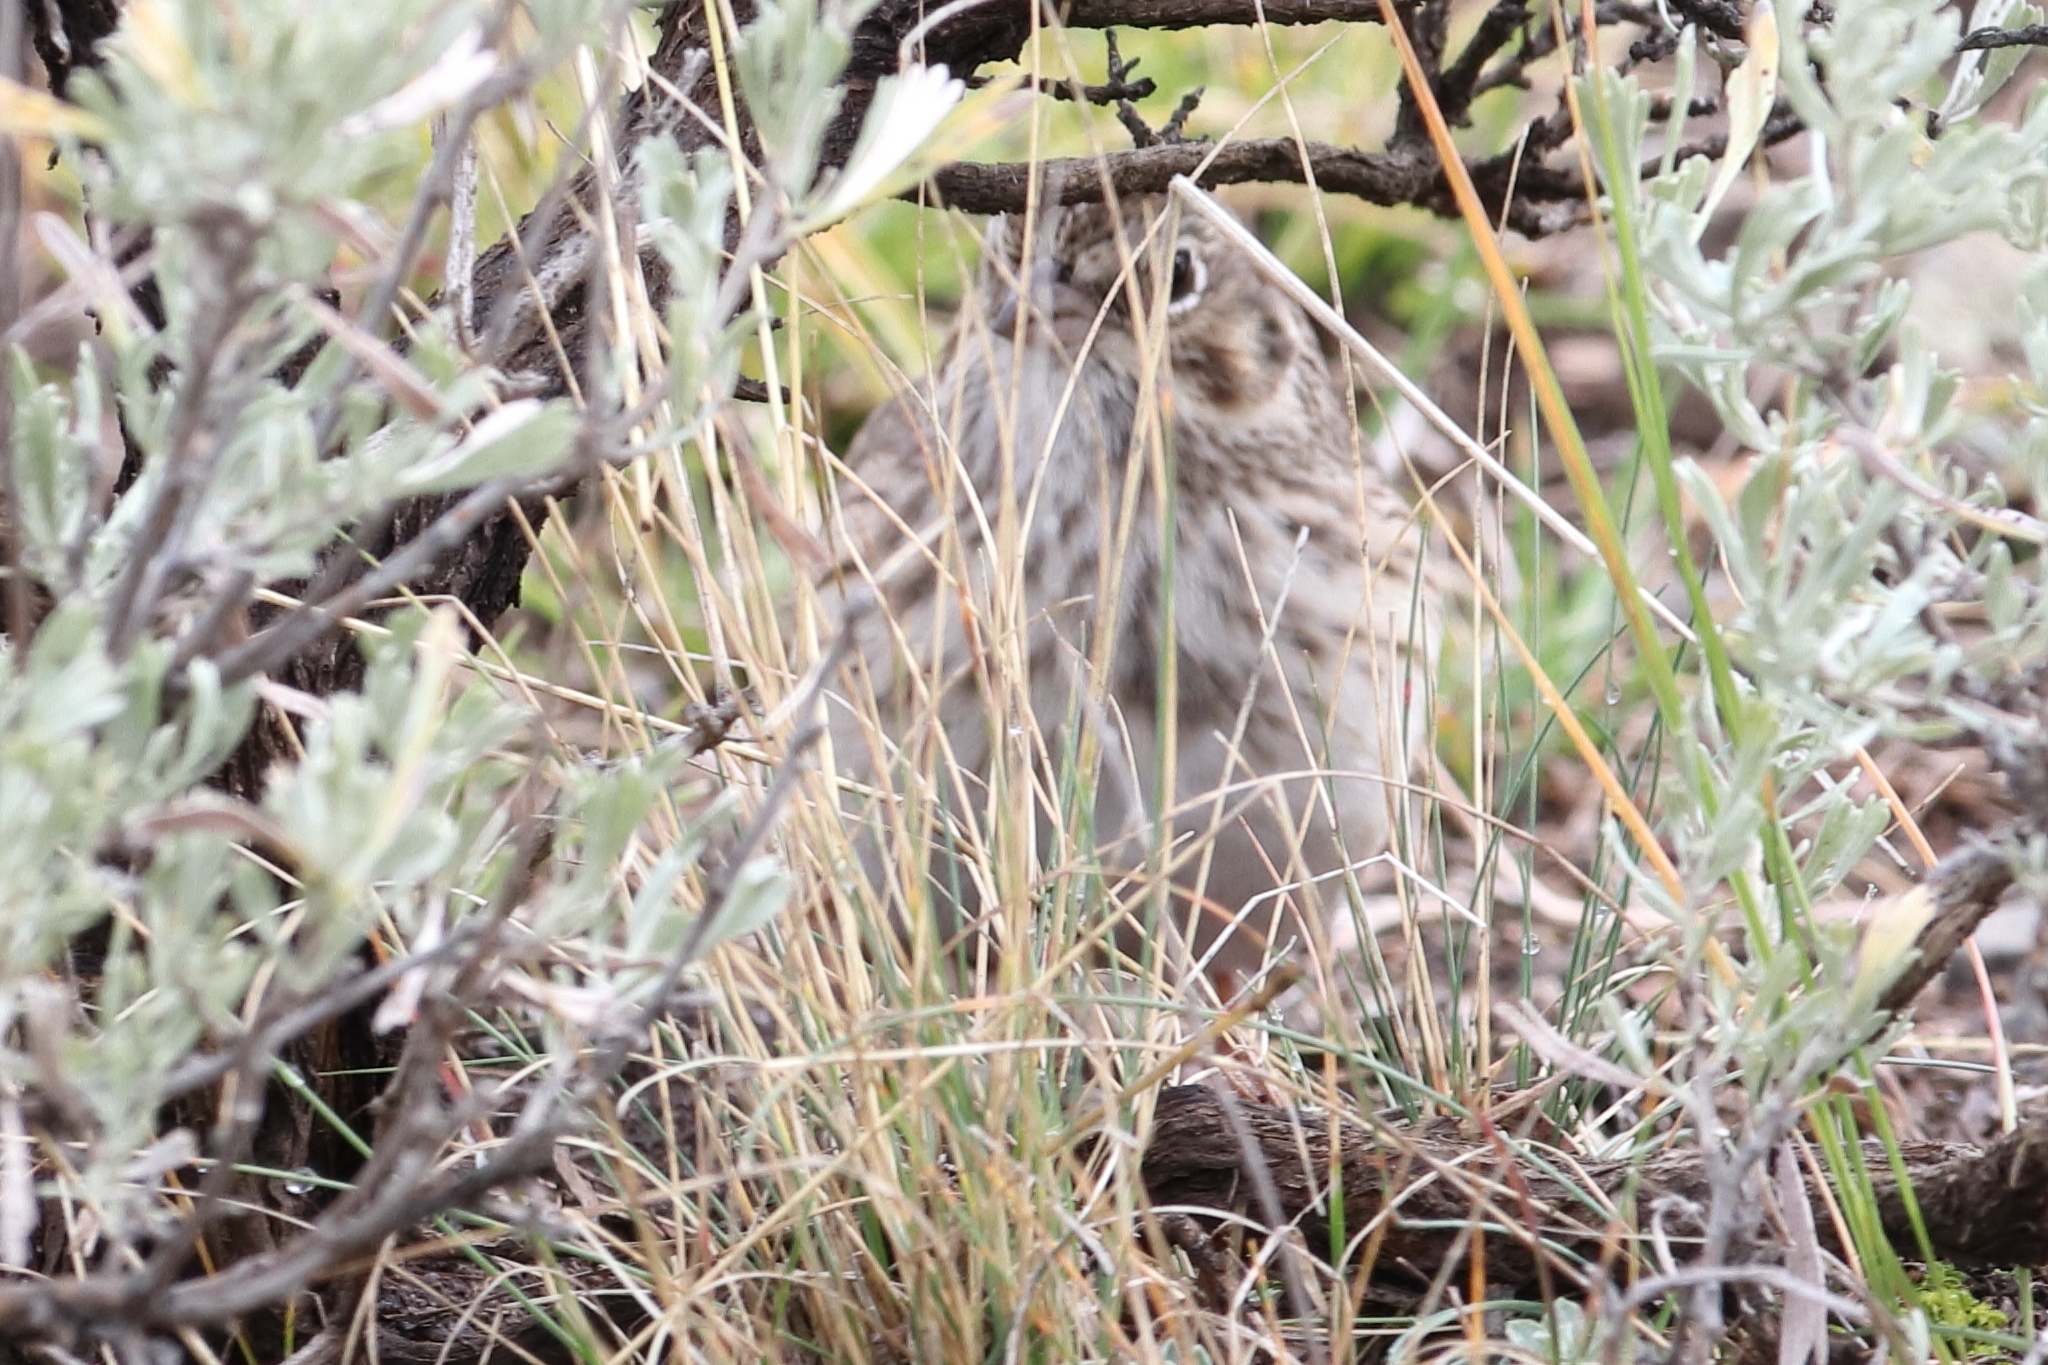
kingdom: Animalia
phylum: Chordata
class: Aves
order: Passeriformes
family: Passerellidae
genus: Pooecetes
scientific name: Pooecetes gramineus
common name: Vesper sparrow
